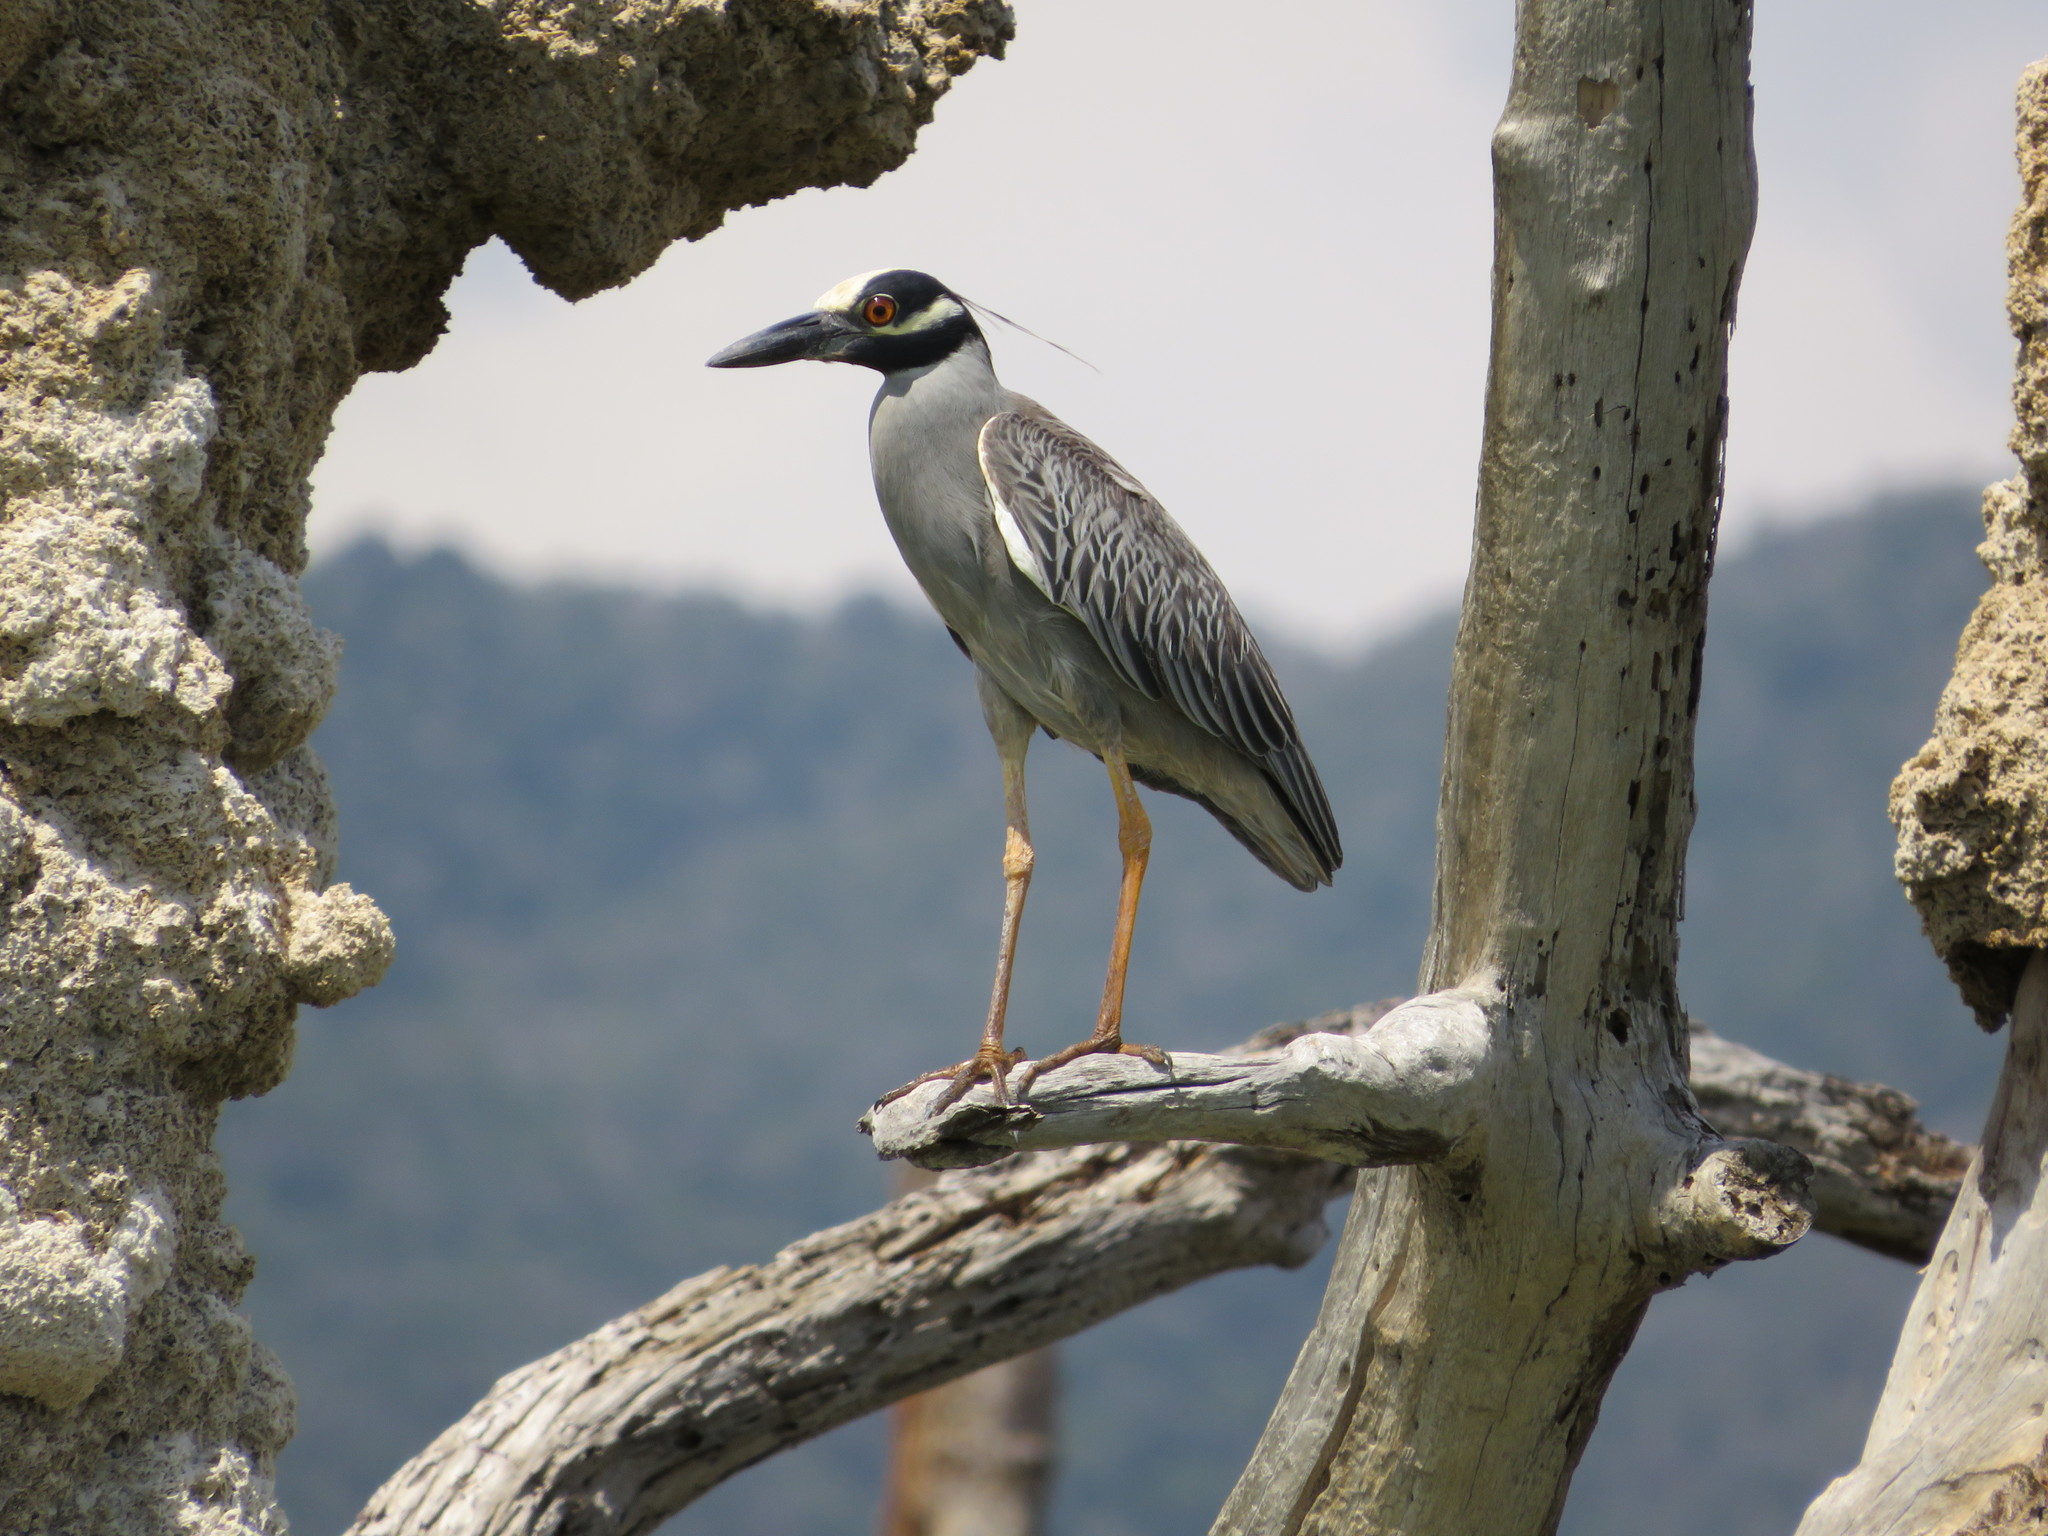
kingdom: Animalia
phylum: Chordata
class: Aves
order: Pelecaniformes
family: Ardeidae
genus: Nyctanassa
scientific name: Nyctanassa violacea
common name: Yellow-crowned night heron
